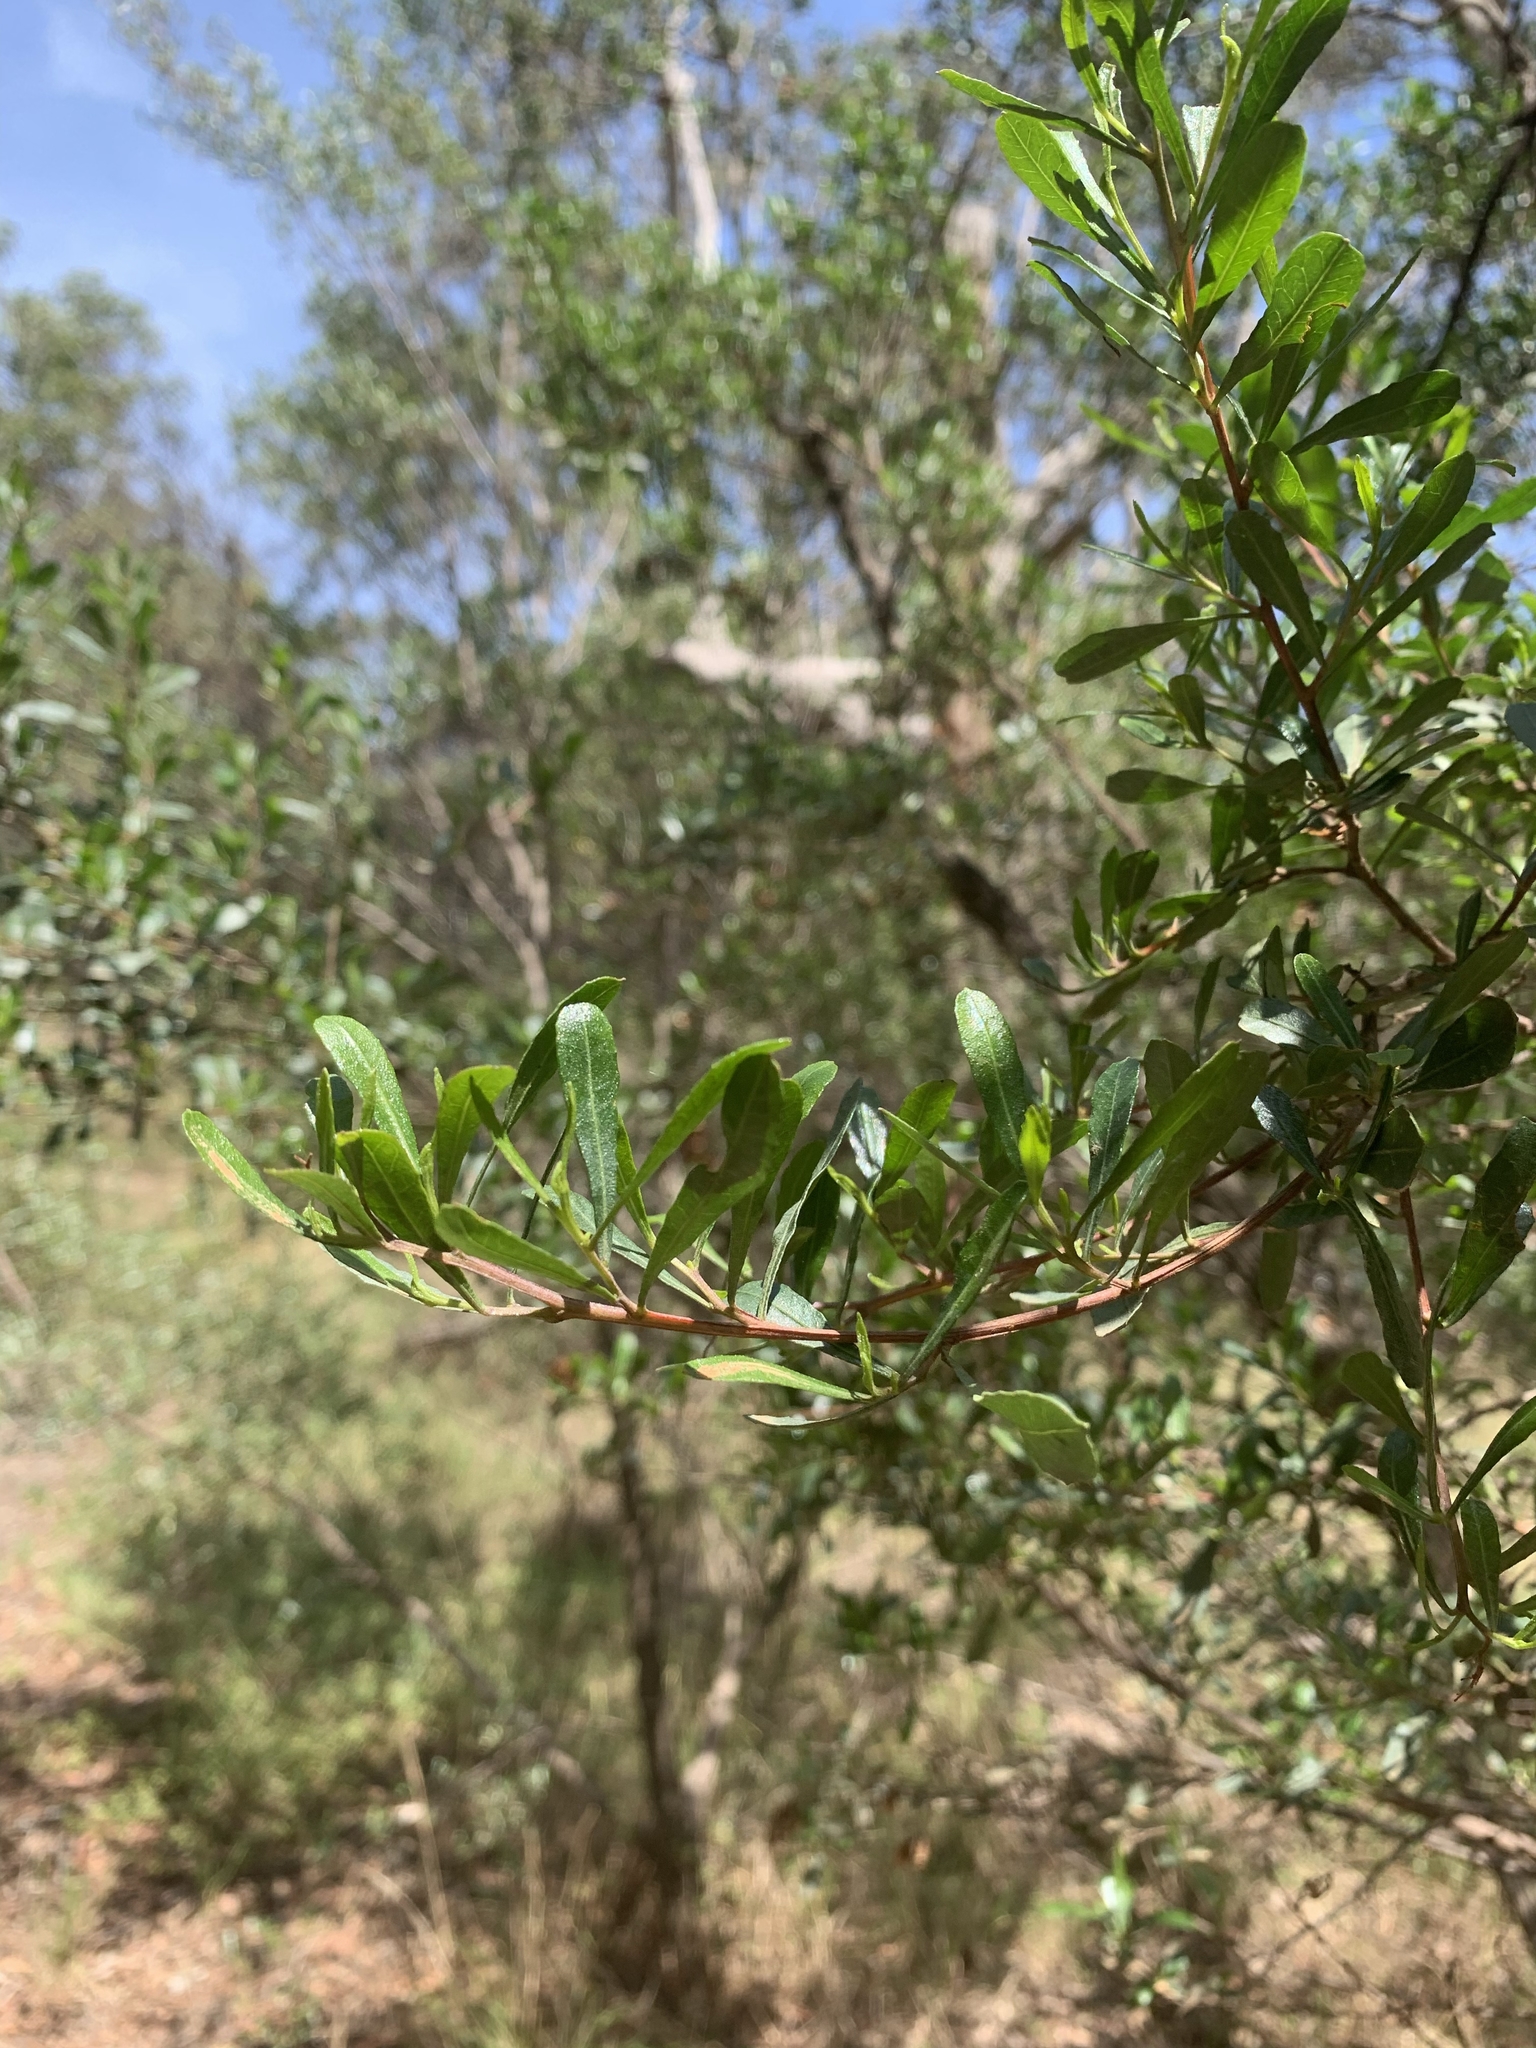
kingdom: Plantae
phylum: Tracheophyta
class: Magnoliopsida
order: Apiales
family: Pittosporaceae
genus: Bursaria
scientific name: Bursaria spinosa
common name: Australian blackthorn
